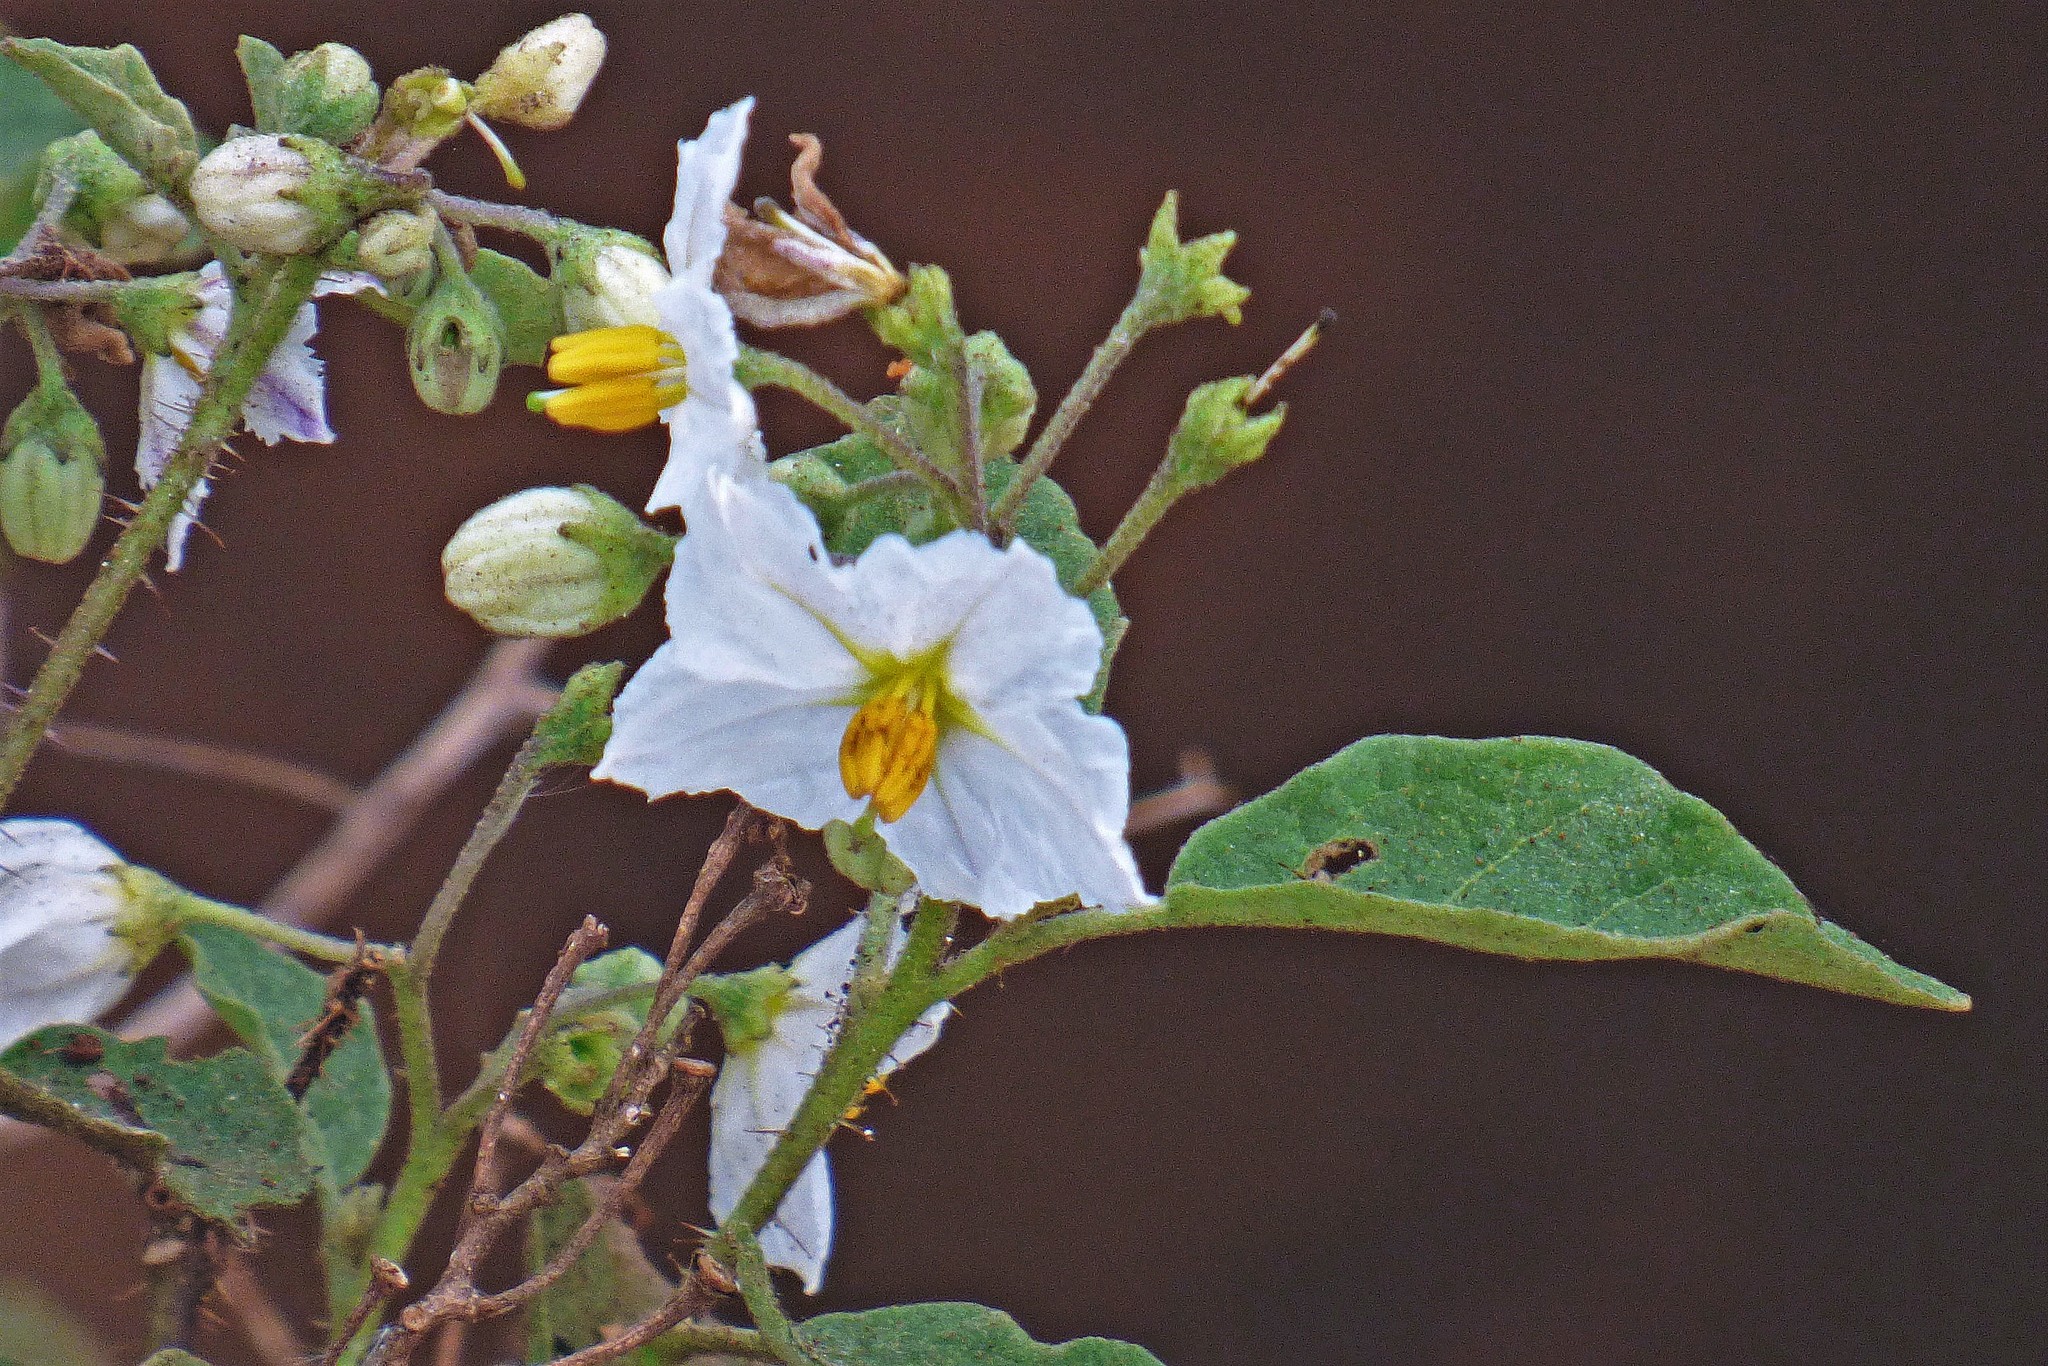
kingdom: Plantae
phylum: Tracheophyta
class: Magnoliopsida
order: Solanales
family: Solanaceae
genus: Solanum
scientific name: Solanum guaraniticum
